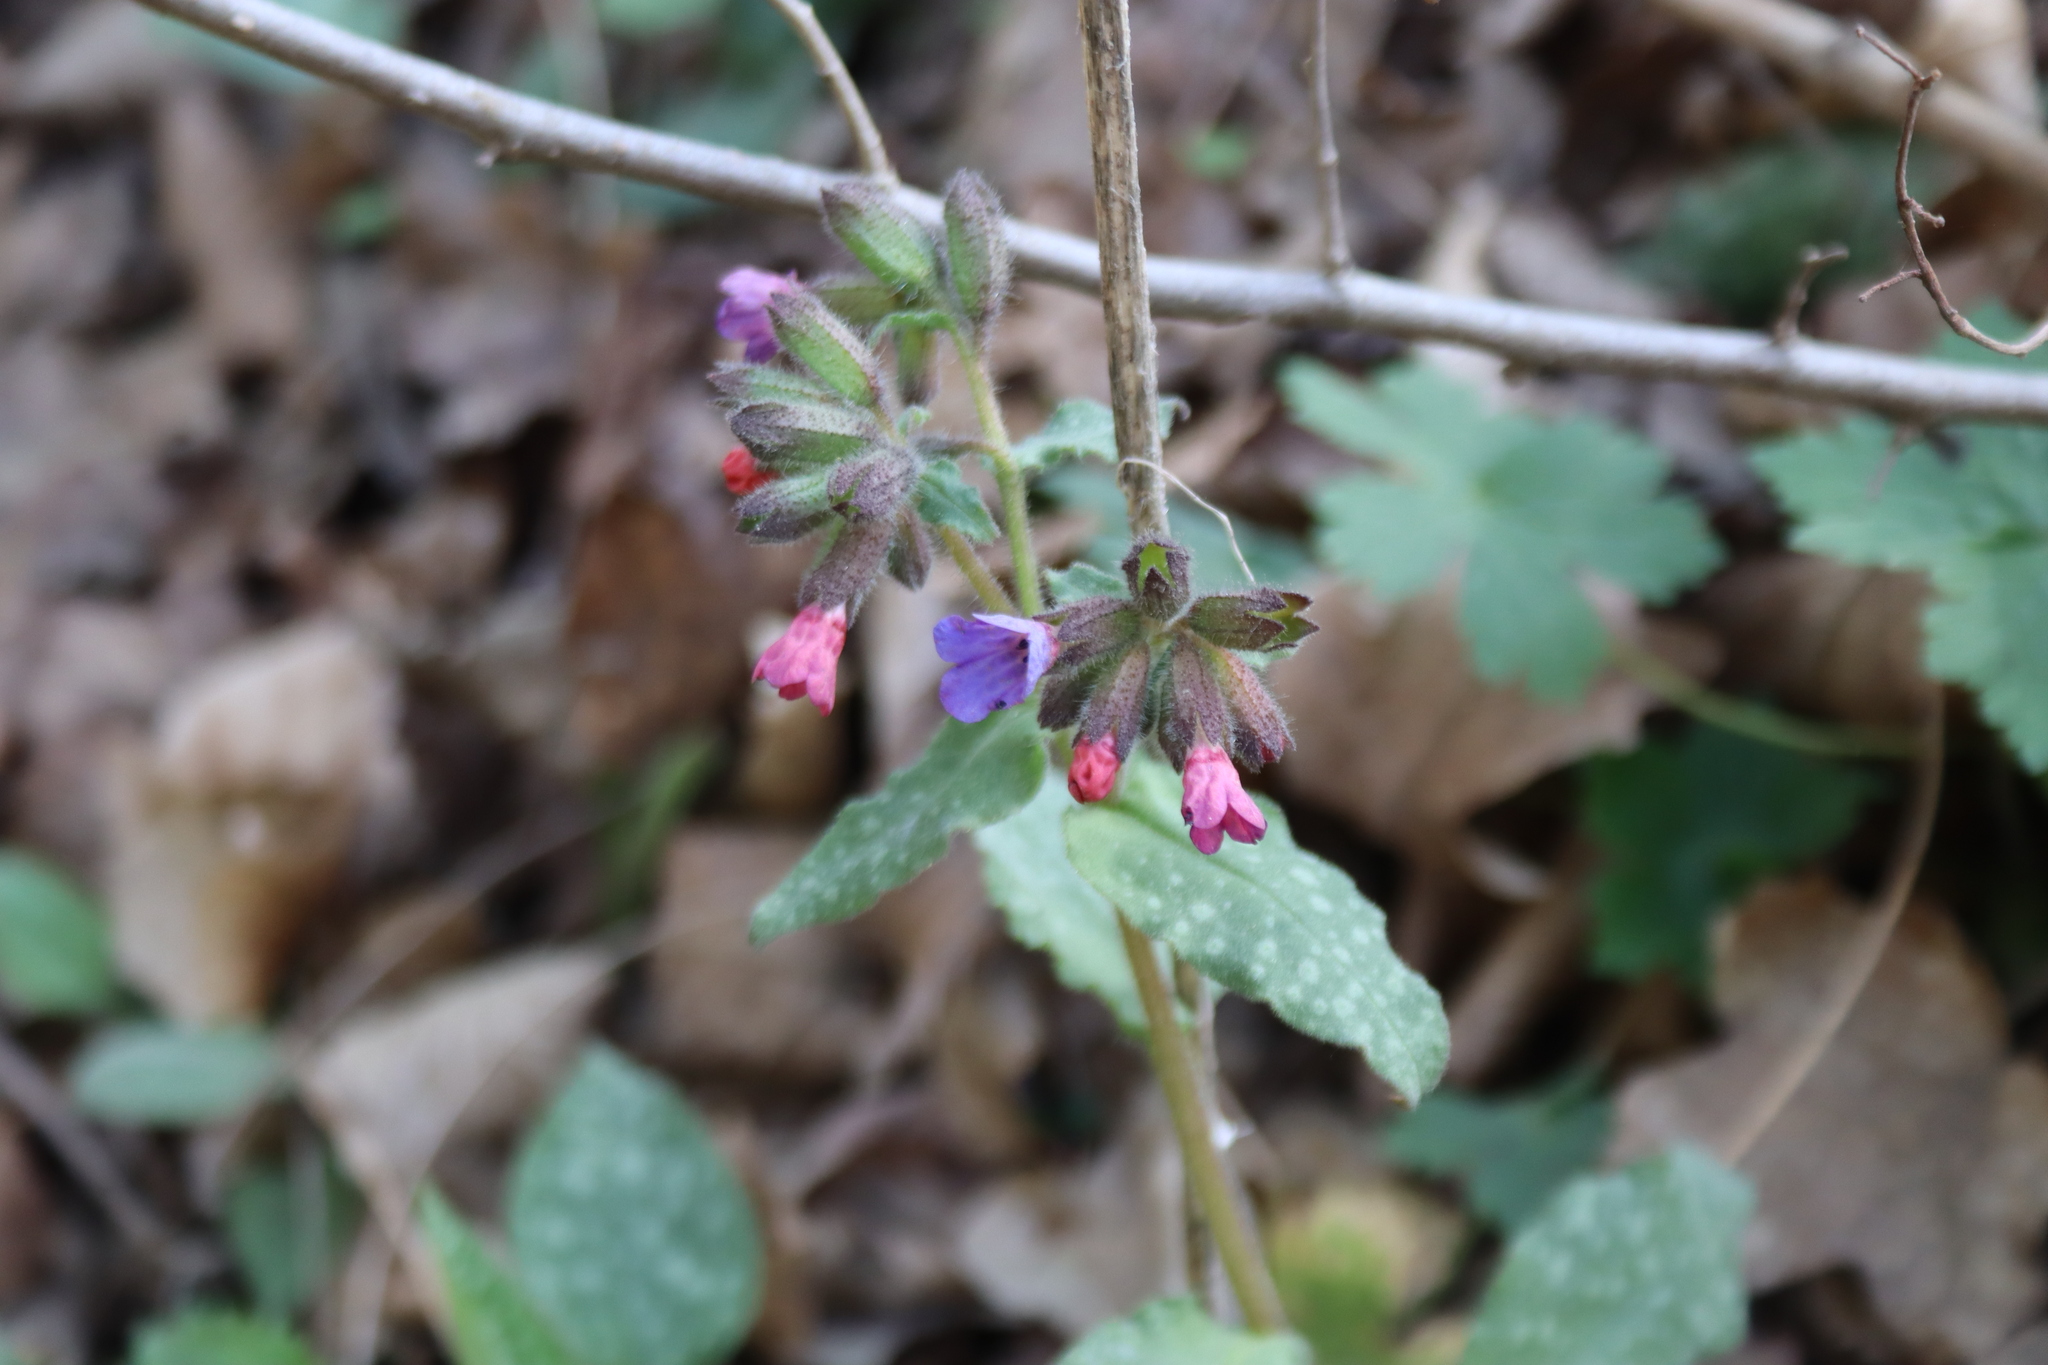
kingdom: Plantae
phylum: Tracheophyta
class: Magnoliopsida
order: Boraginales
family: Boraginaceae
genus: Pulmonaria
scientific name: Pulmonaria officinalis
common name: Lungwort
